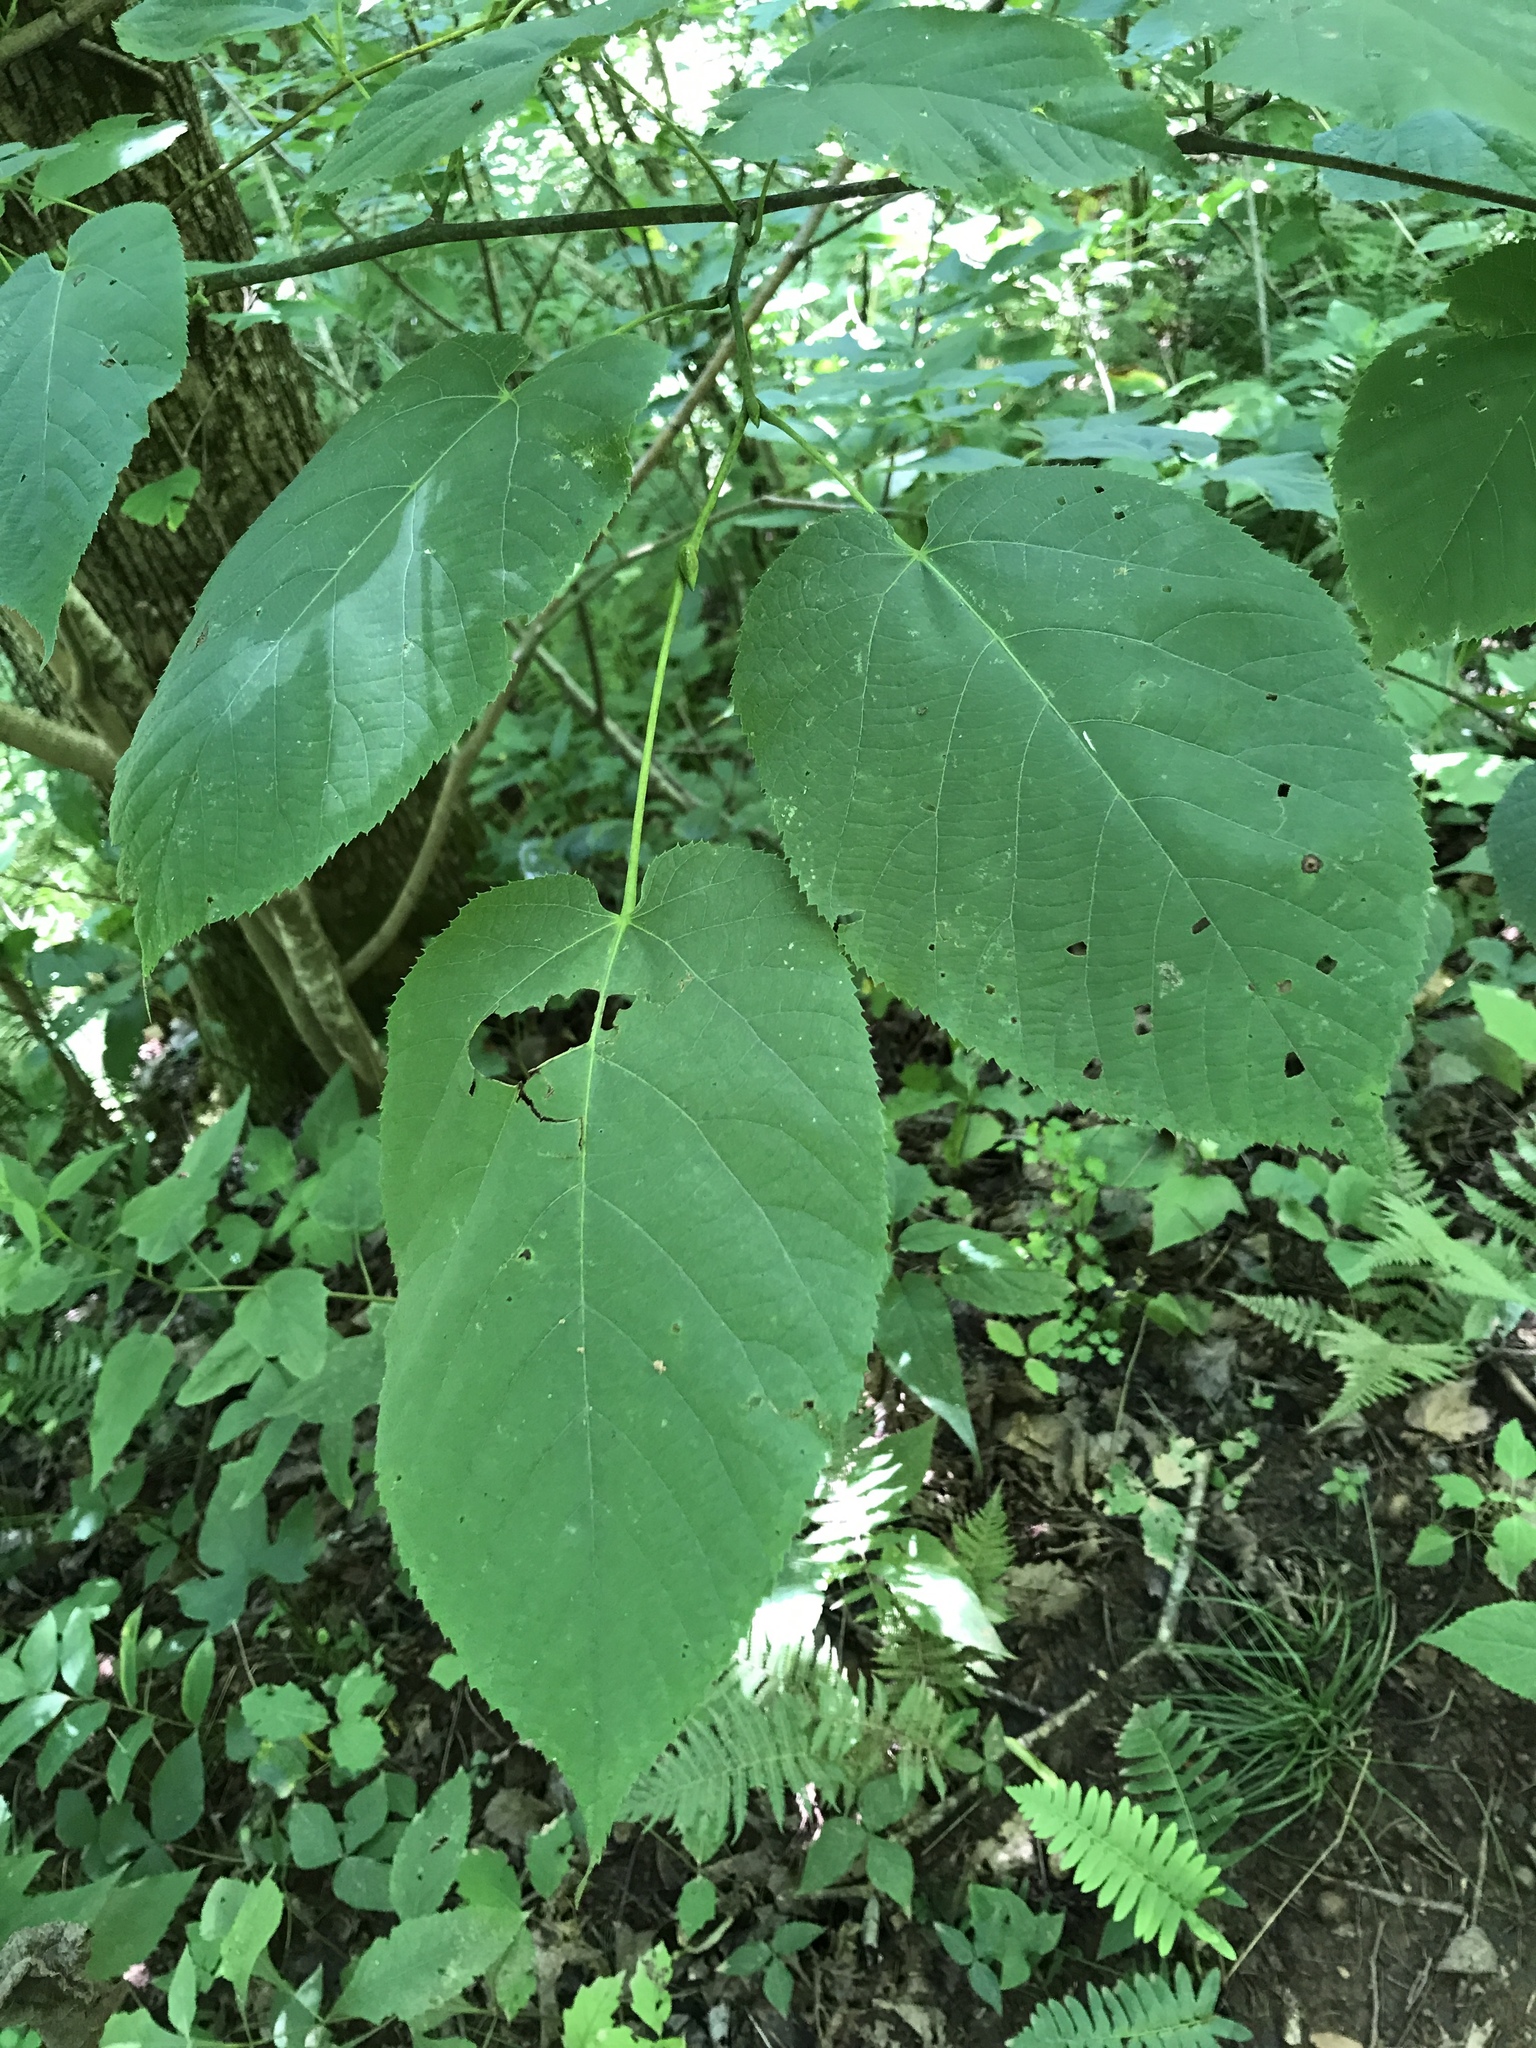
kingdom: Plantae
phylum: Tracheophyta
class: Magnoliopsida
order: Malvales
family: Malvaceae
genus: Tilia
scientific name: Tilia americana
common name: Basswood
